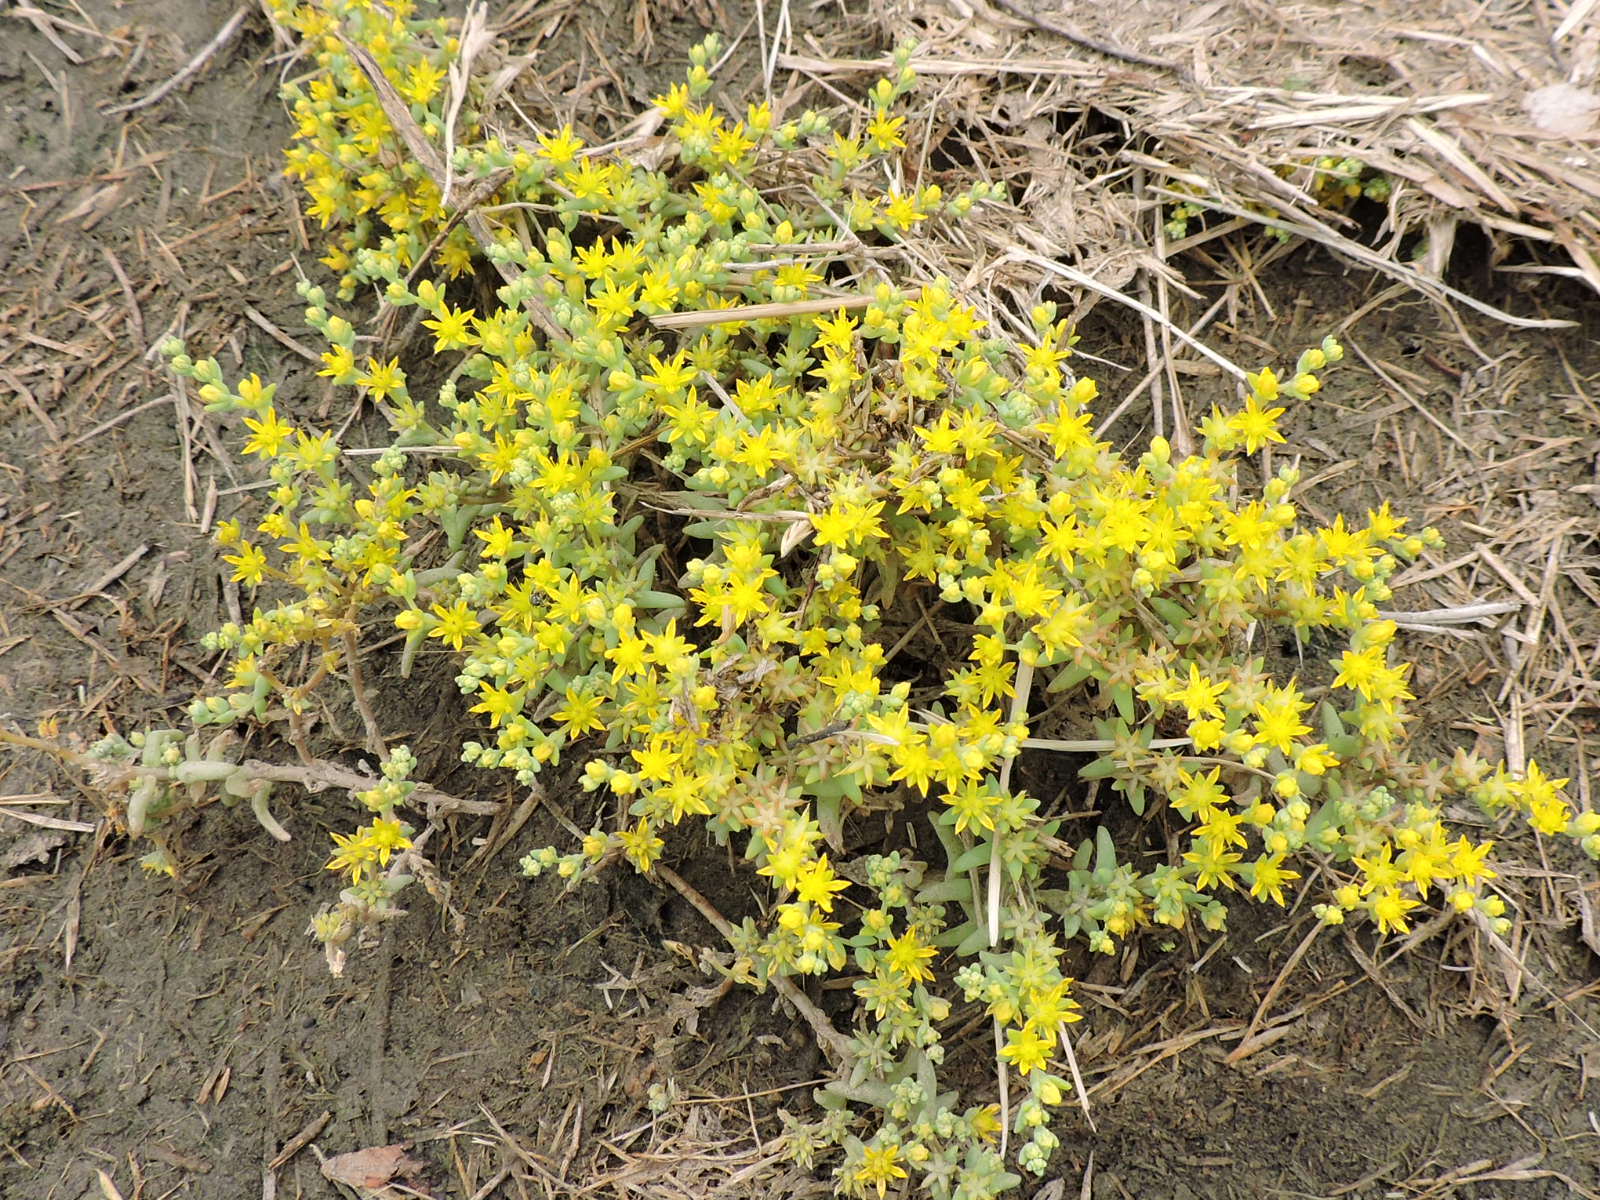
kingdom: Plantae
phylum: Tracheophyta
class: Magnoliopsida
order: Saxifragales
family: Crassulaceae
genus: Sedum
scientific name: Sedum nuttallii
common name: Yellow stonecrop
